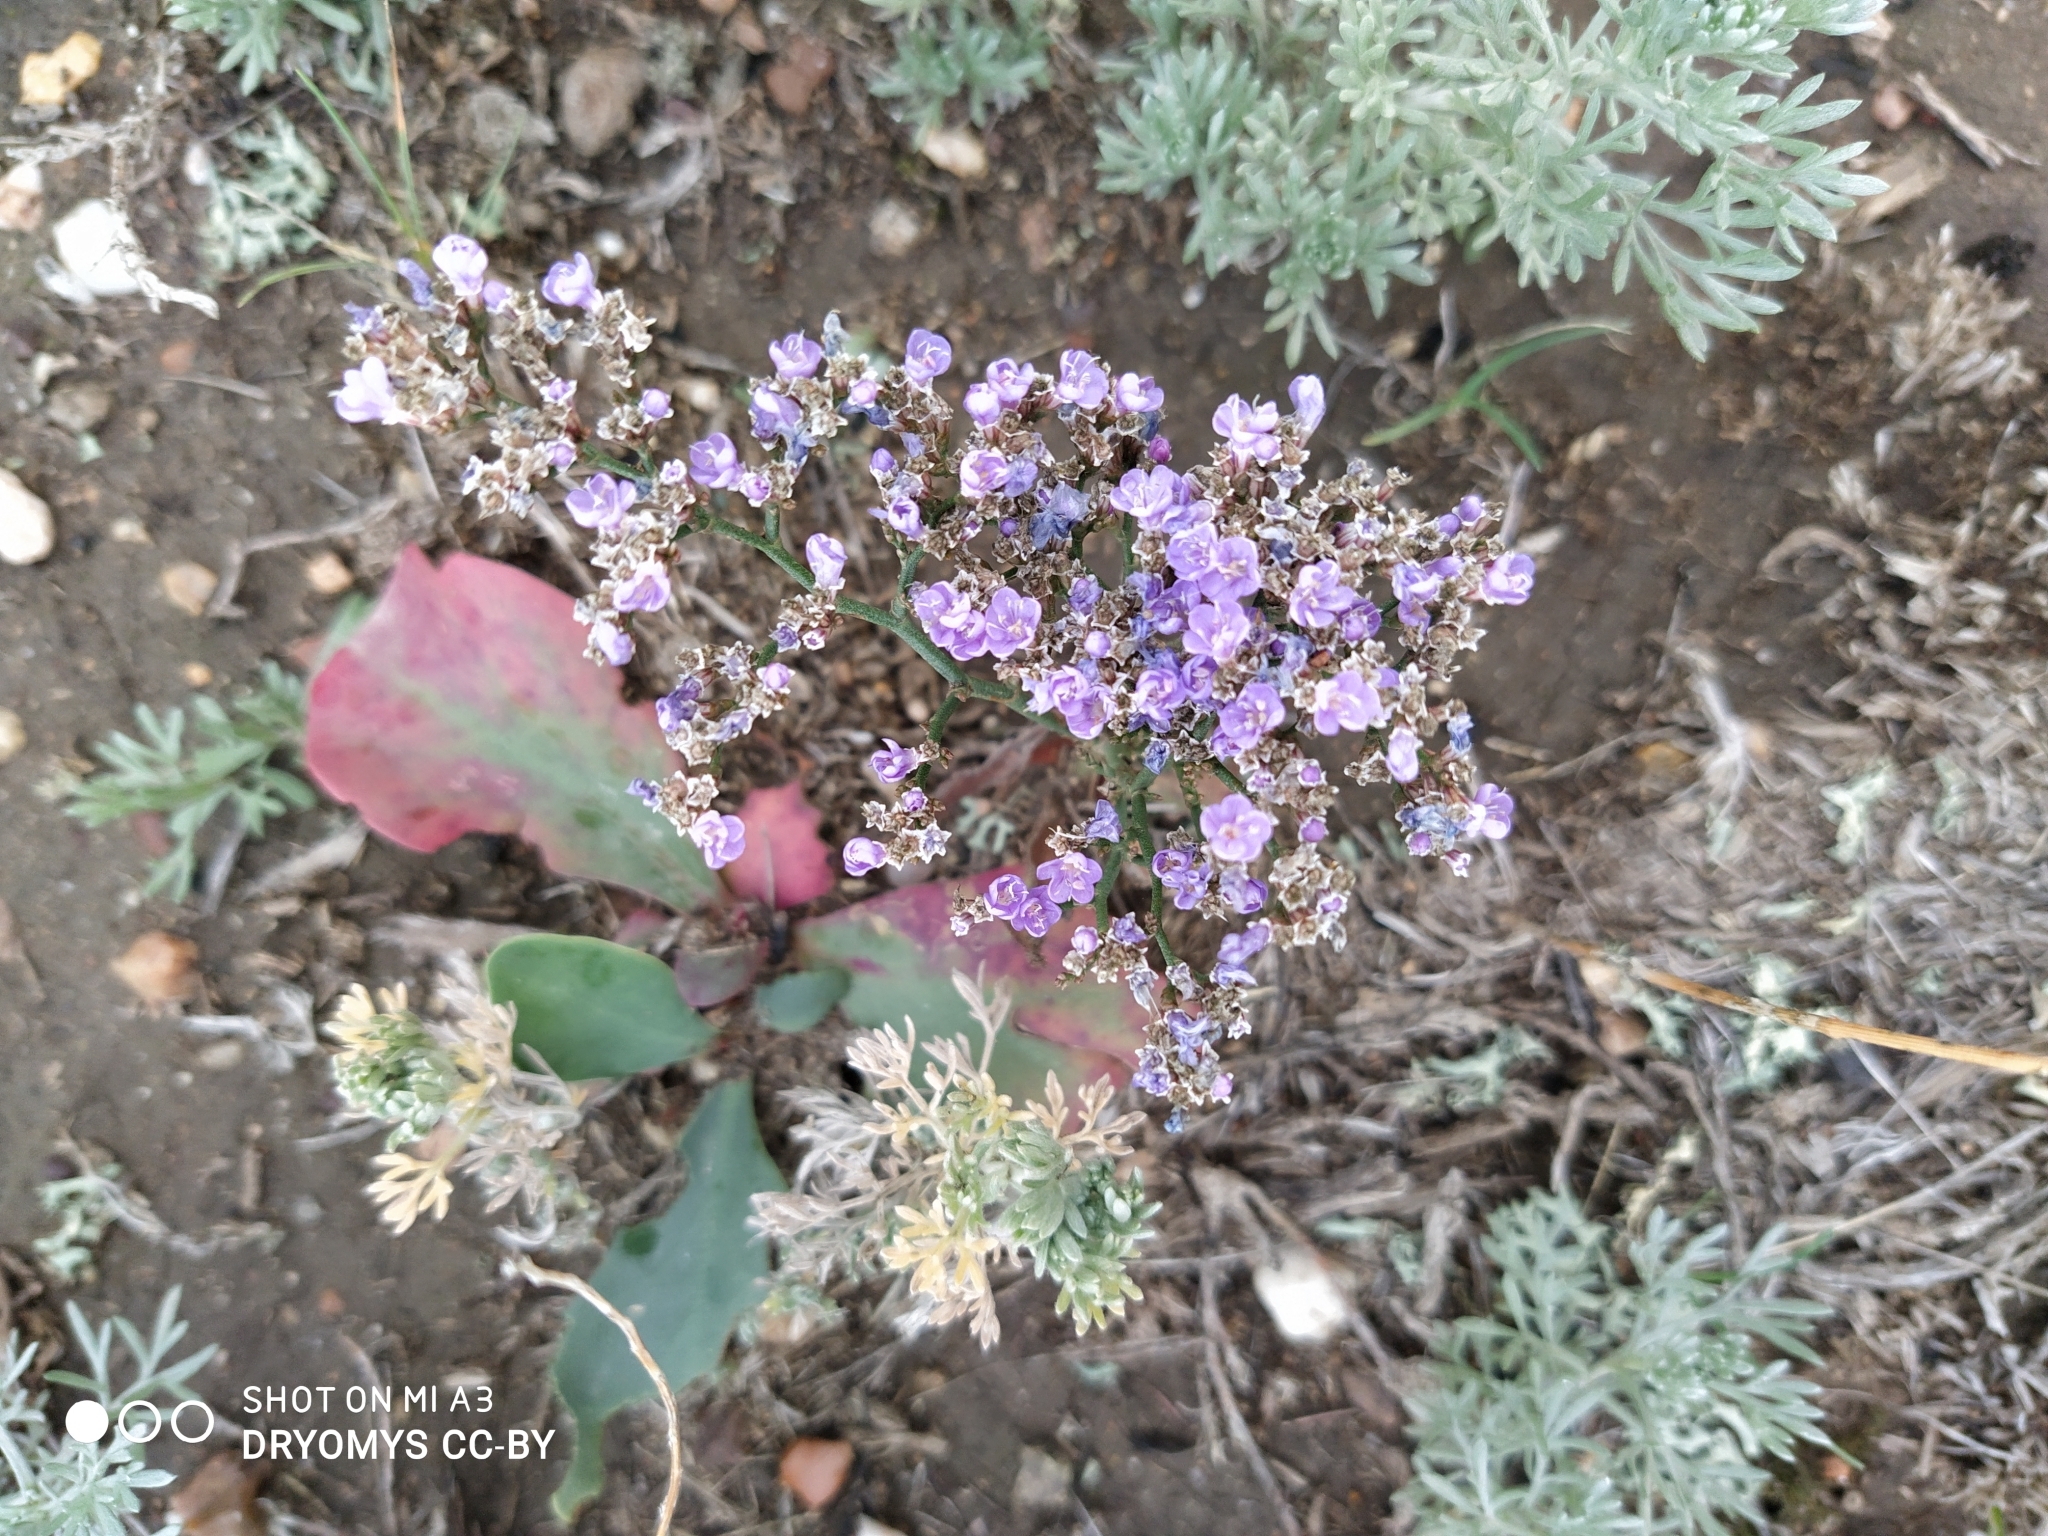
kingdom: Plantae
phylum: Tracheophyta
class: Magnoliopsida
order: Caryophyllales
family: Plumbaginaceae
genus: Limonium
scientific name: Limonium gmelini
